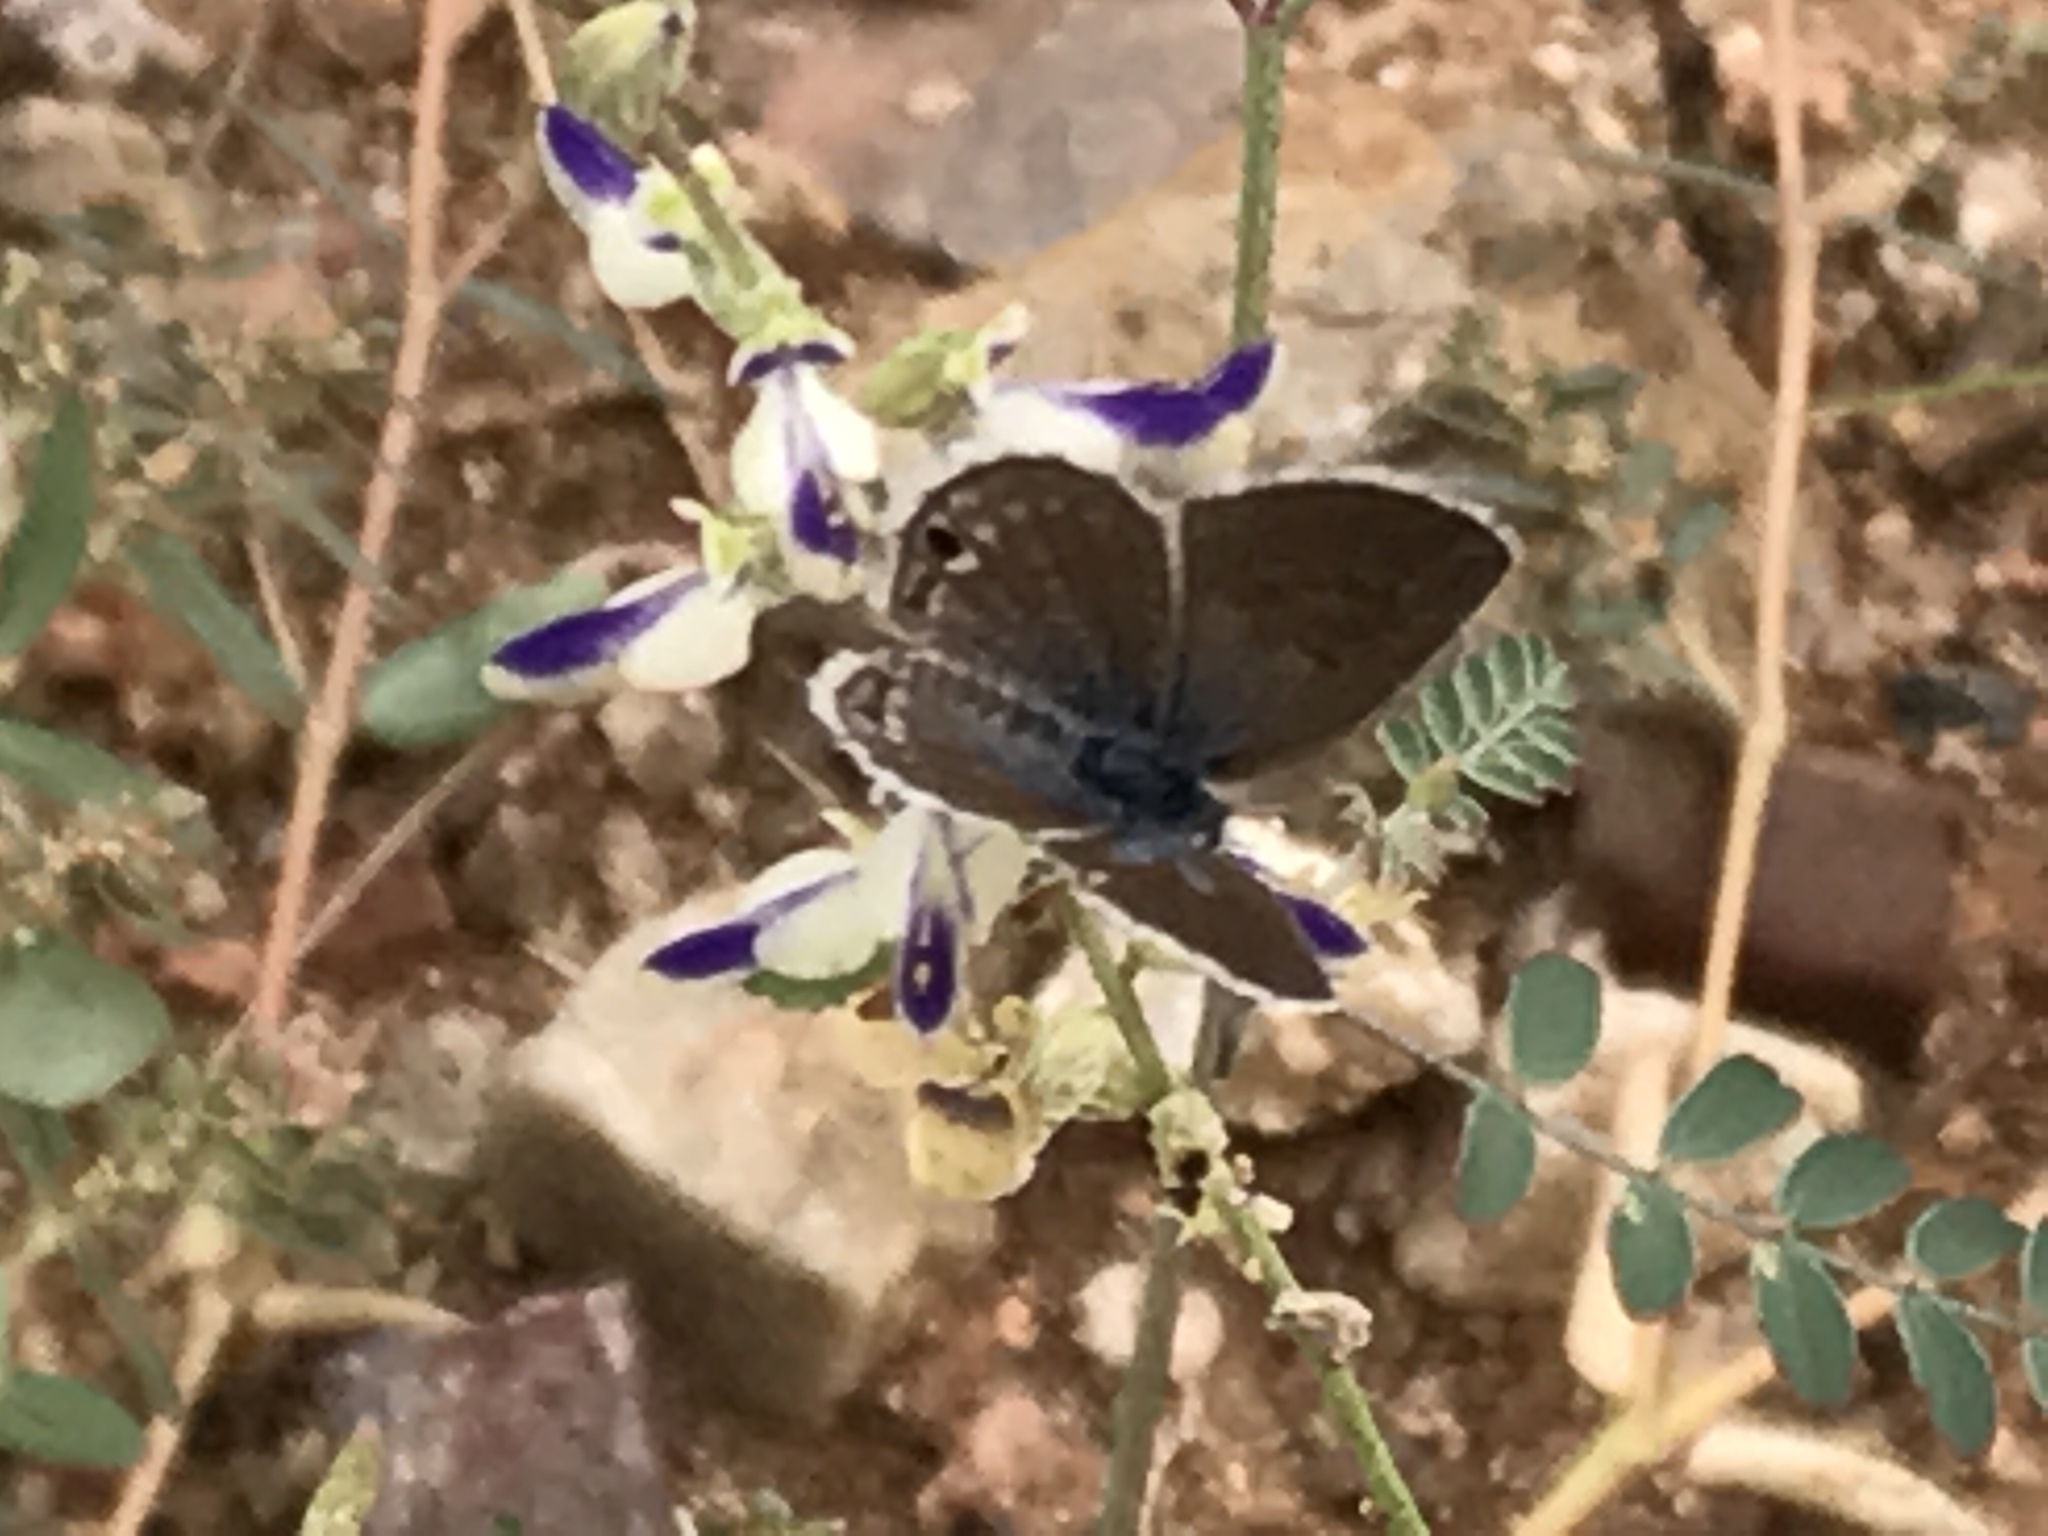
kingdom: Animalia
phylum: Arthropoda
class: Insecta
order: Lepidoptera
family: Lycaenidae
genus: Echinargus
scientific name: Echinargus isola
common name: Reakirt's blue
